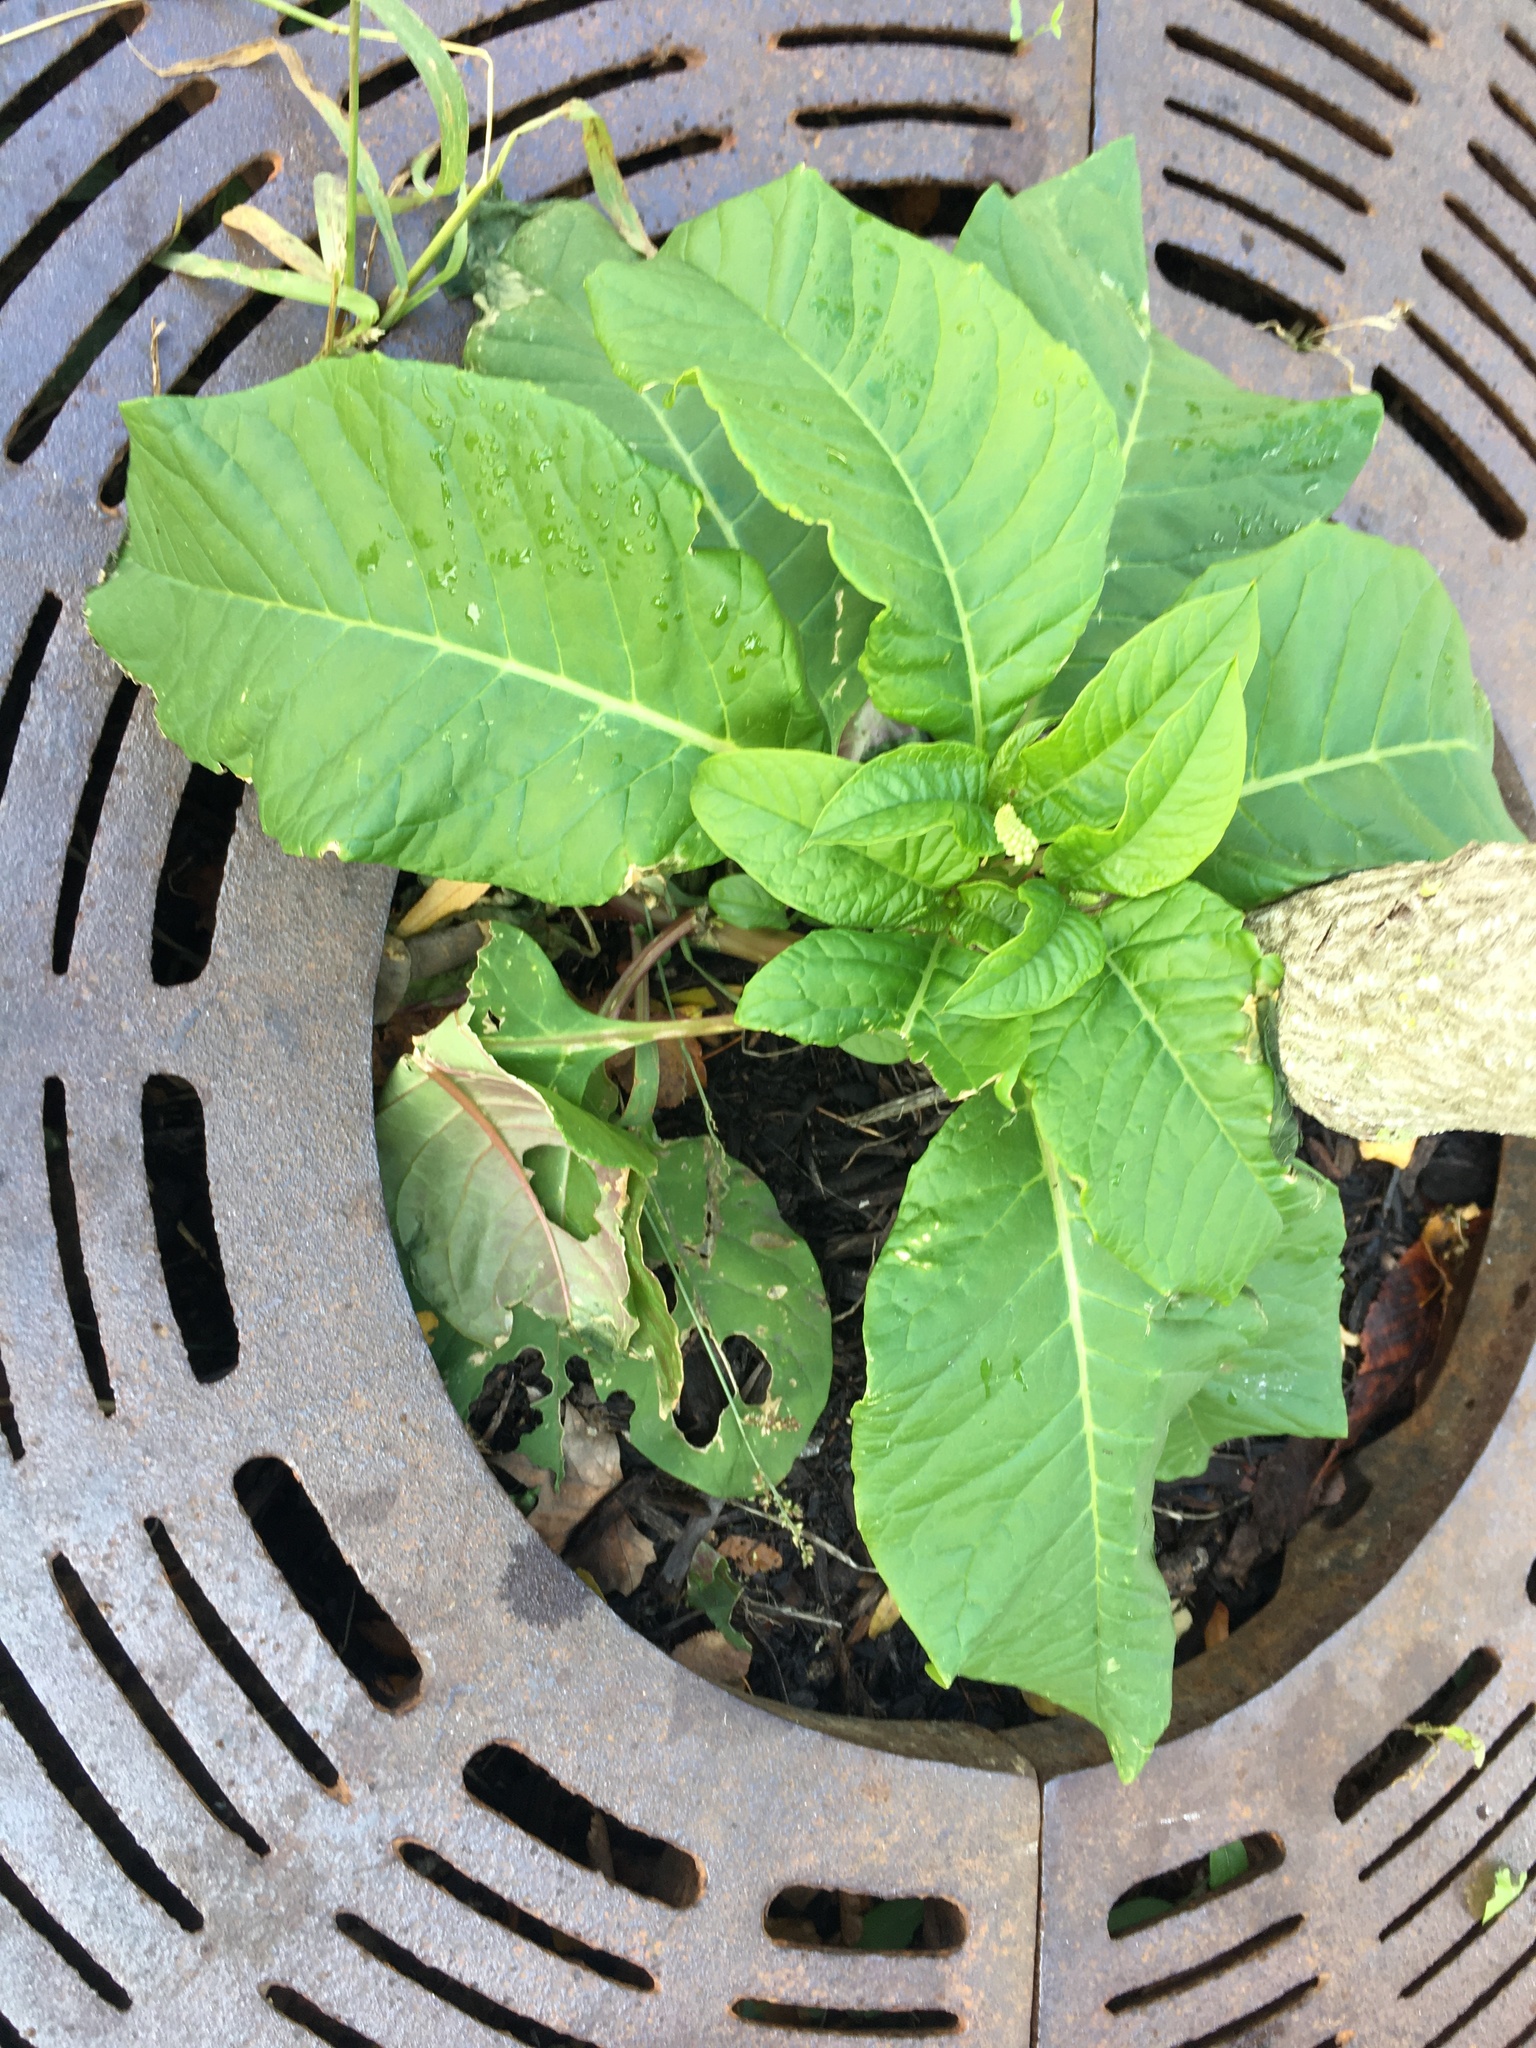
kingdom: Plantae
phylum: Tracheophyta
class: Magnoliopsida
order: Caryophyllales
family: Phytolaccaceae
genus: Phytolacca
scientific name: Phytolacca americana
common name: American pokeweed
